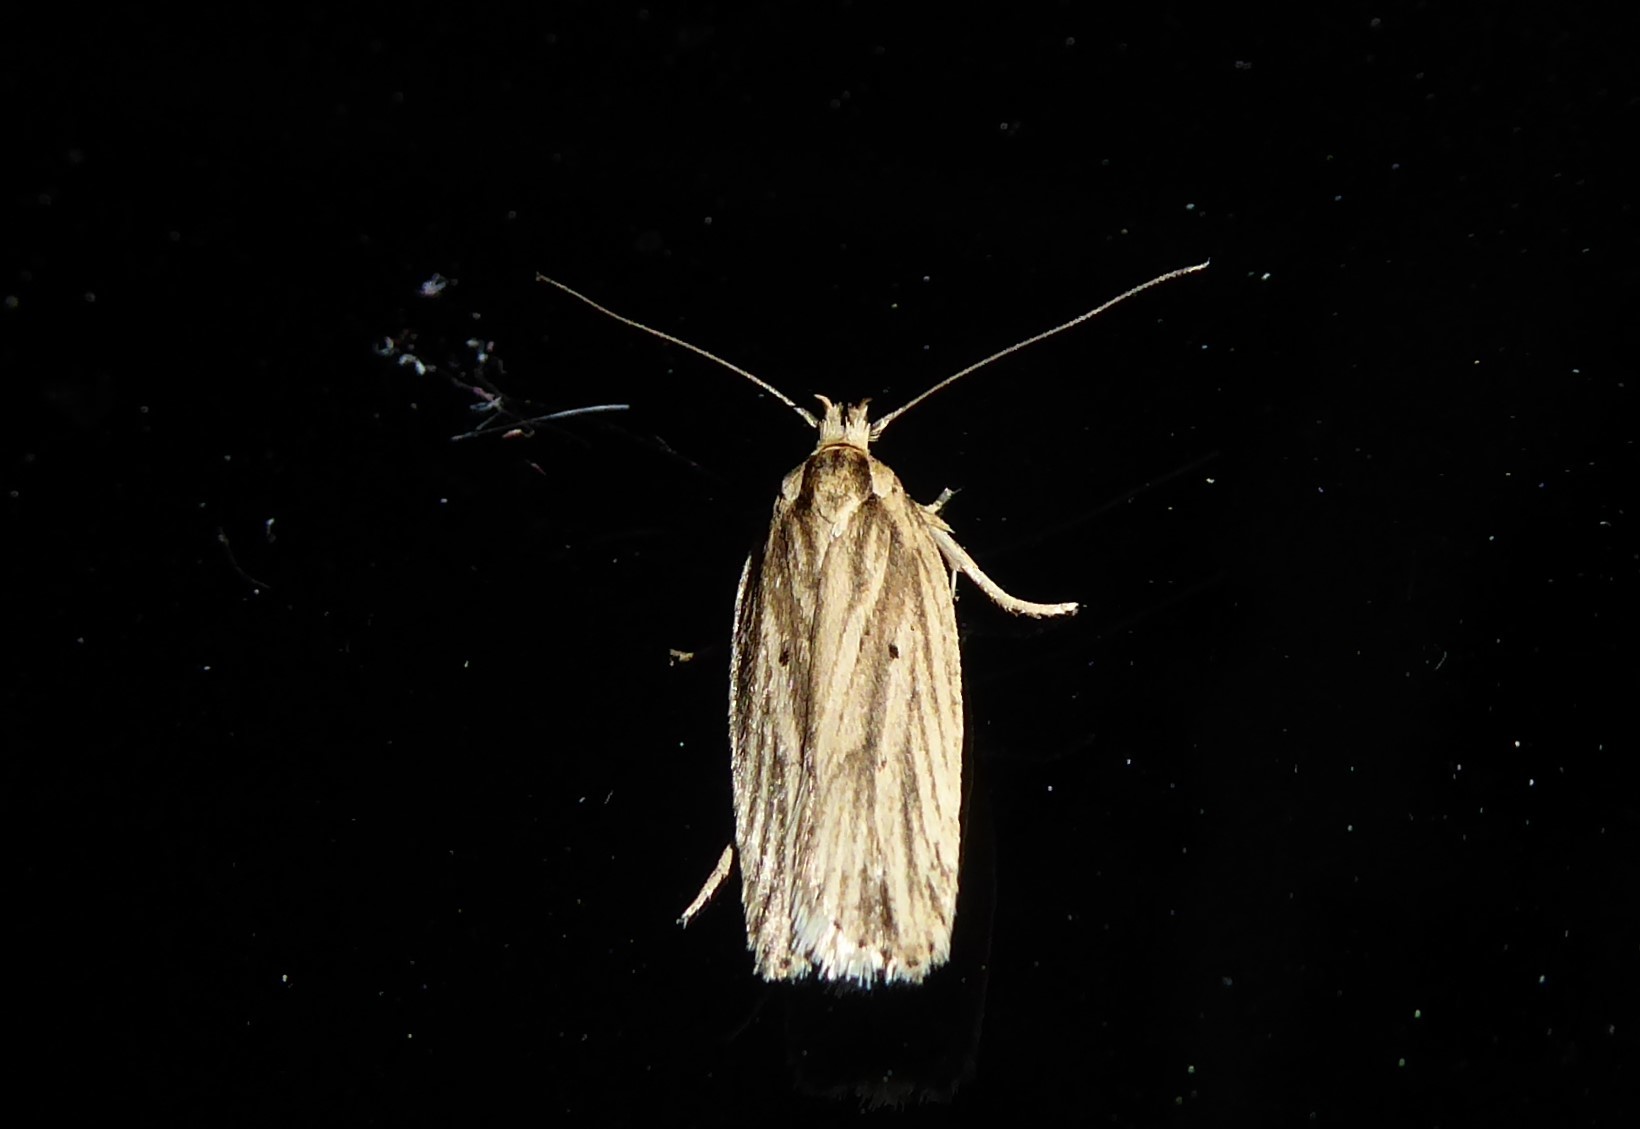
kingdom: Animalia
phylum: Arthropoda
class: Insecta
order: Lepidoptera
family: Depressariidae
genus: Agonopterix
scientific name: Agonopterix
